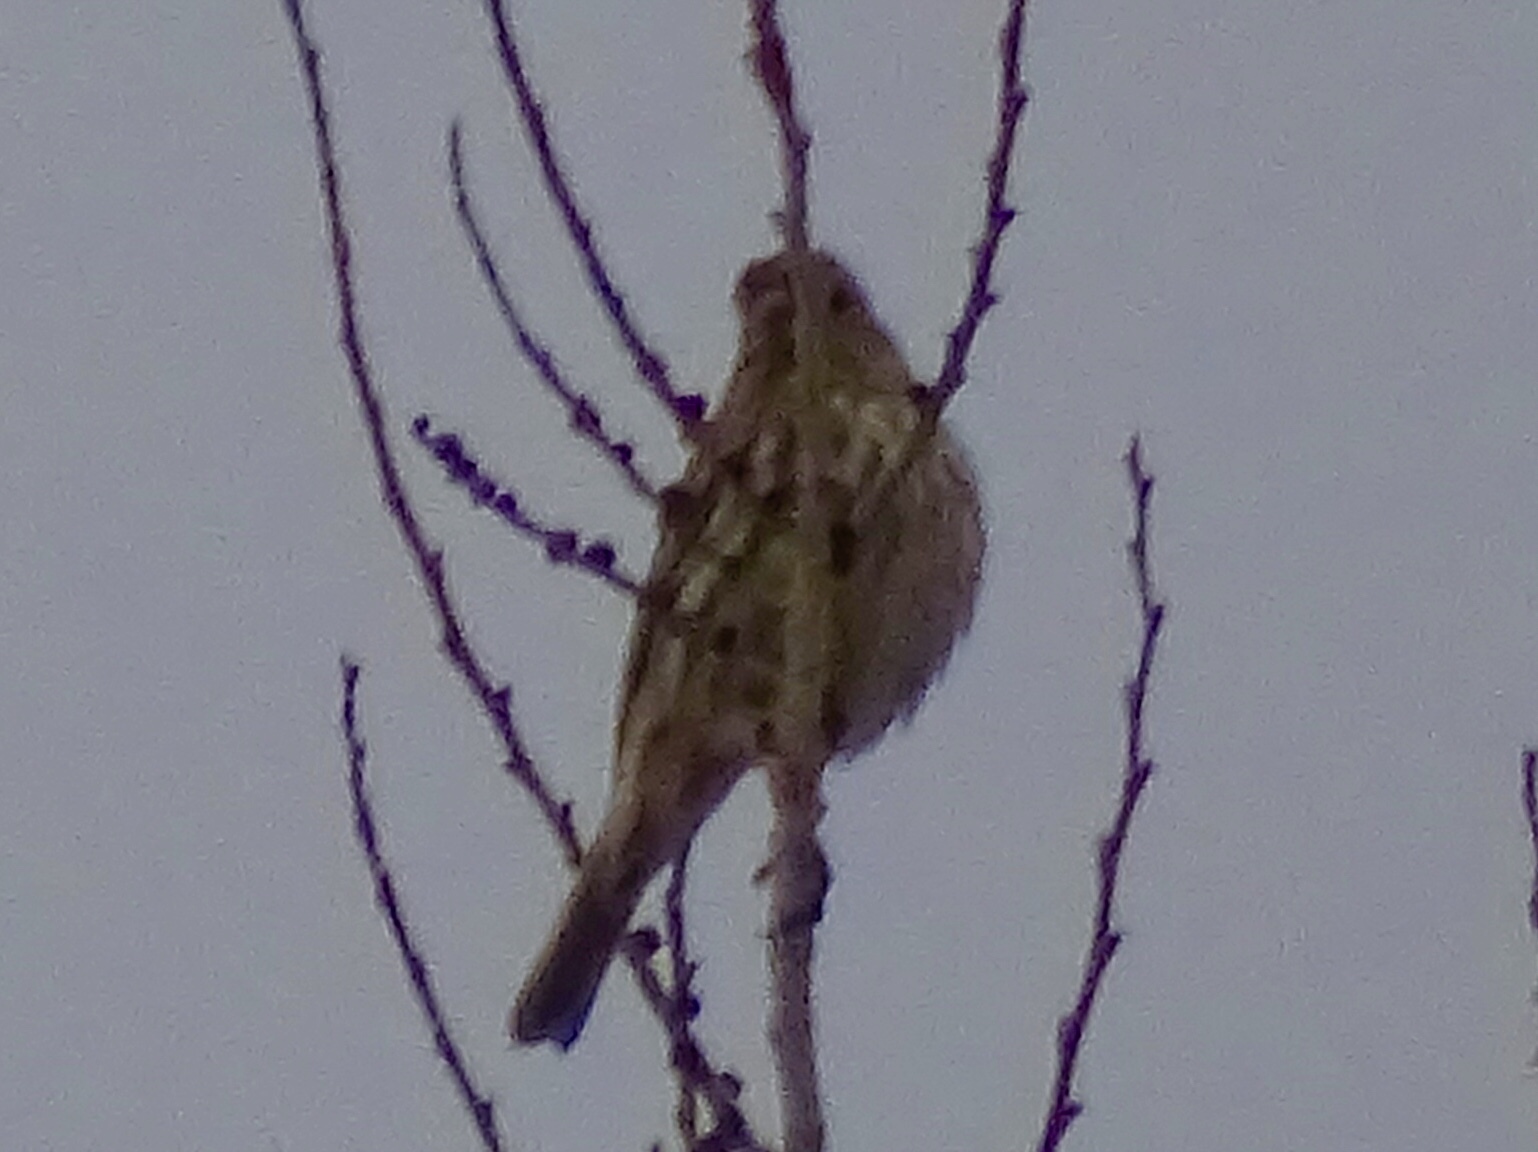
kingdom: Animalia
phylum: Chordata
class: Aves
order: Passeriformes
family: Fringillidae
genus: Haemorhous
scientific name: Haemorhous mexicanus
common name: House finch
